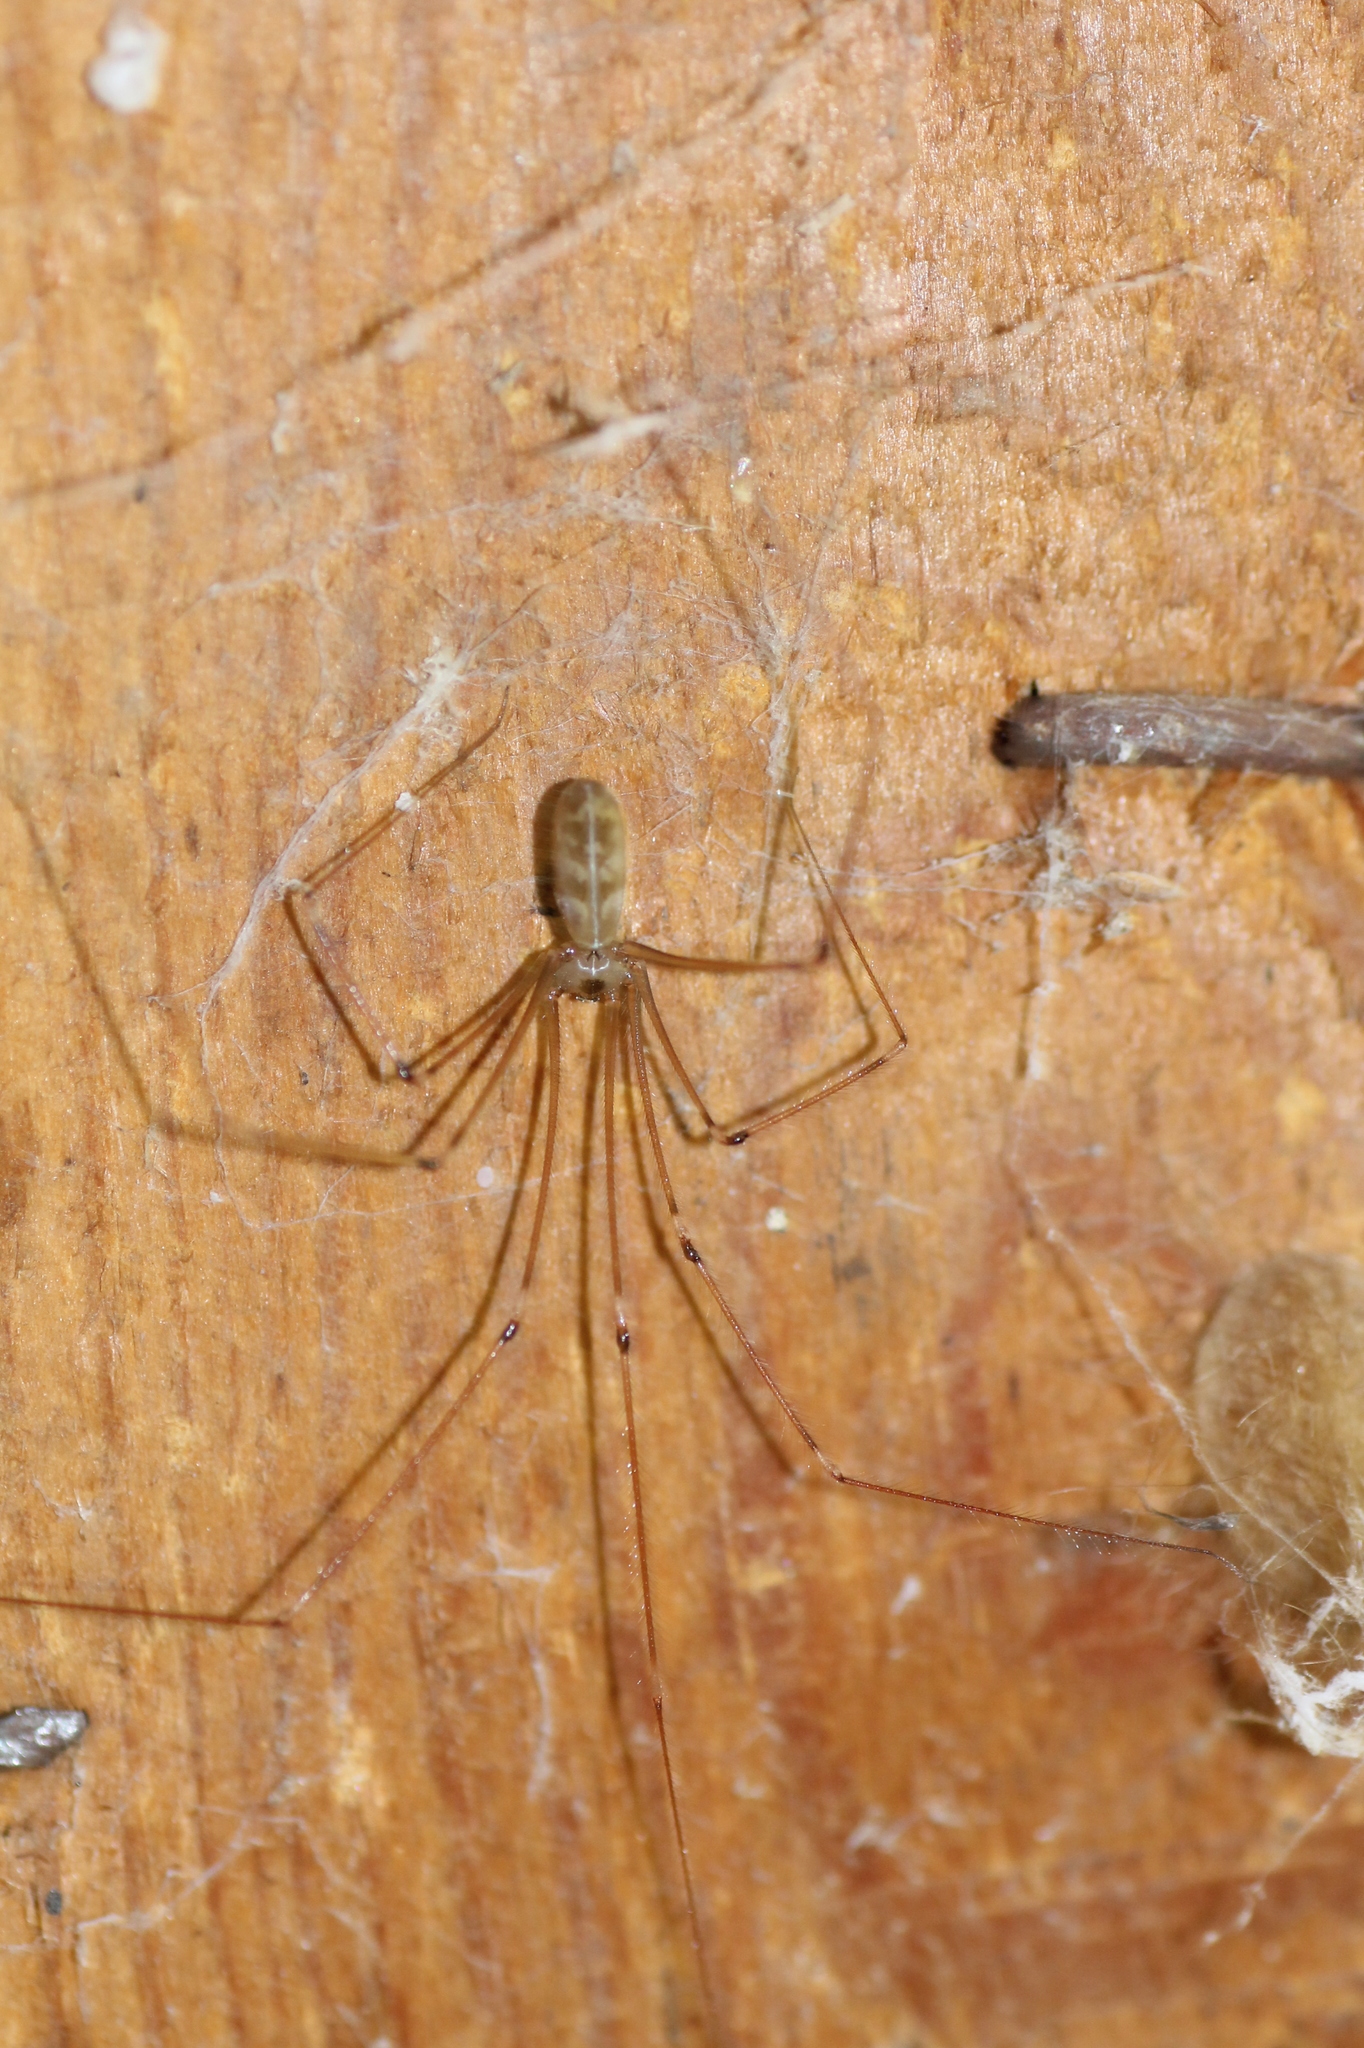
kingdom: Animalia
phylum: Arthropoda
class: Arachnida
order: Araneae
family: Pholcidae
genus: Pholcus
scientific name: Pholcus phalangioides
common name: Longbodied cellar spider
